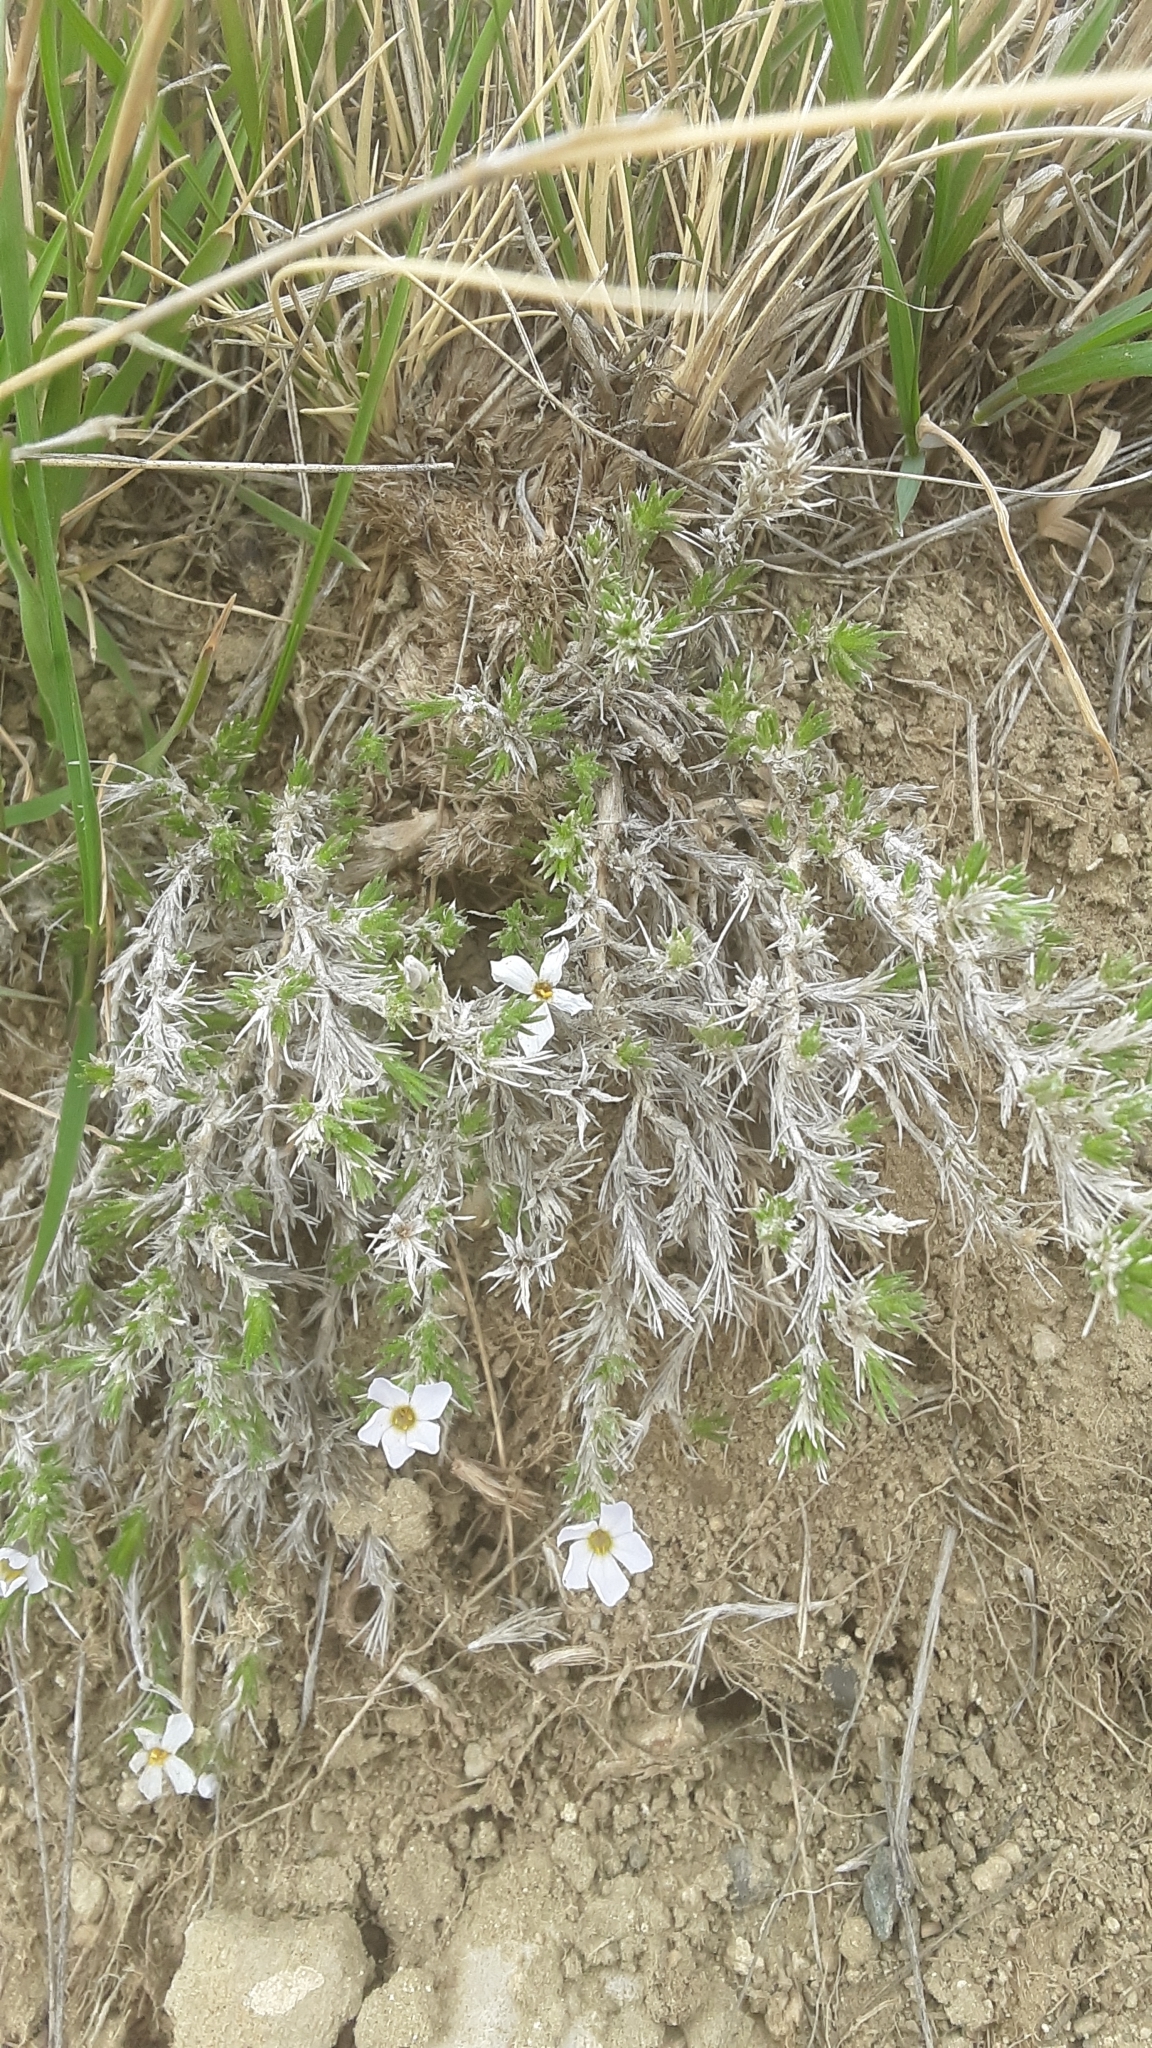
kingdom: Plantae
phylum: Tracheophyta
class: Magnoliopsida
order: Ericales
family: Polemoniaceae
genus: Phlox
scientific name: Phlox hoodii
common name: Moss phlox
